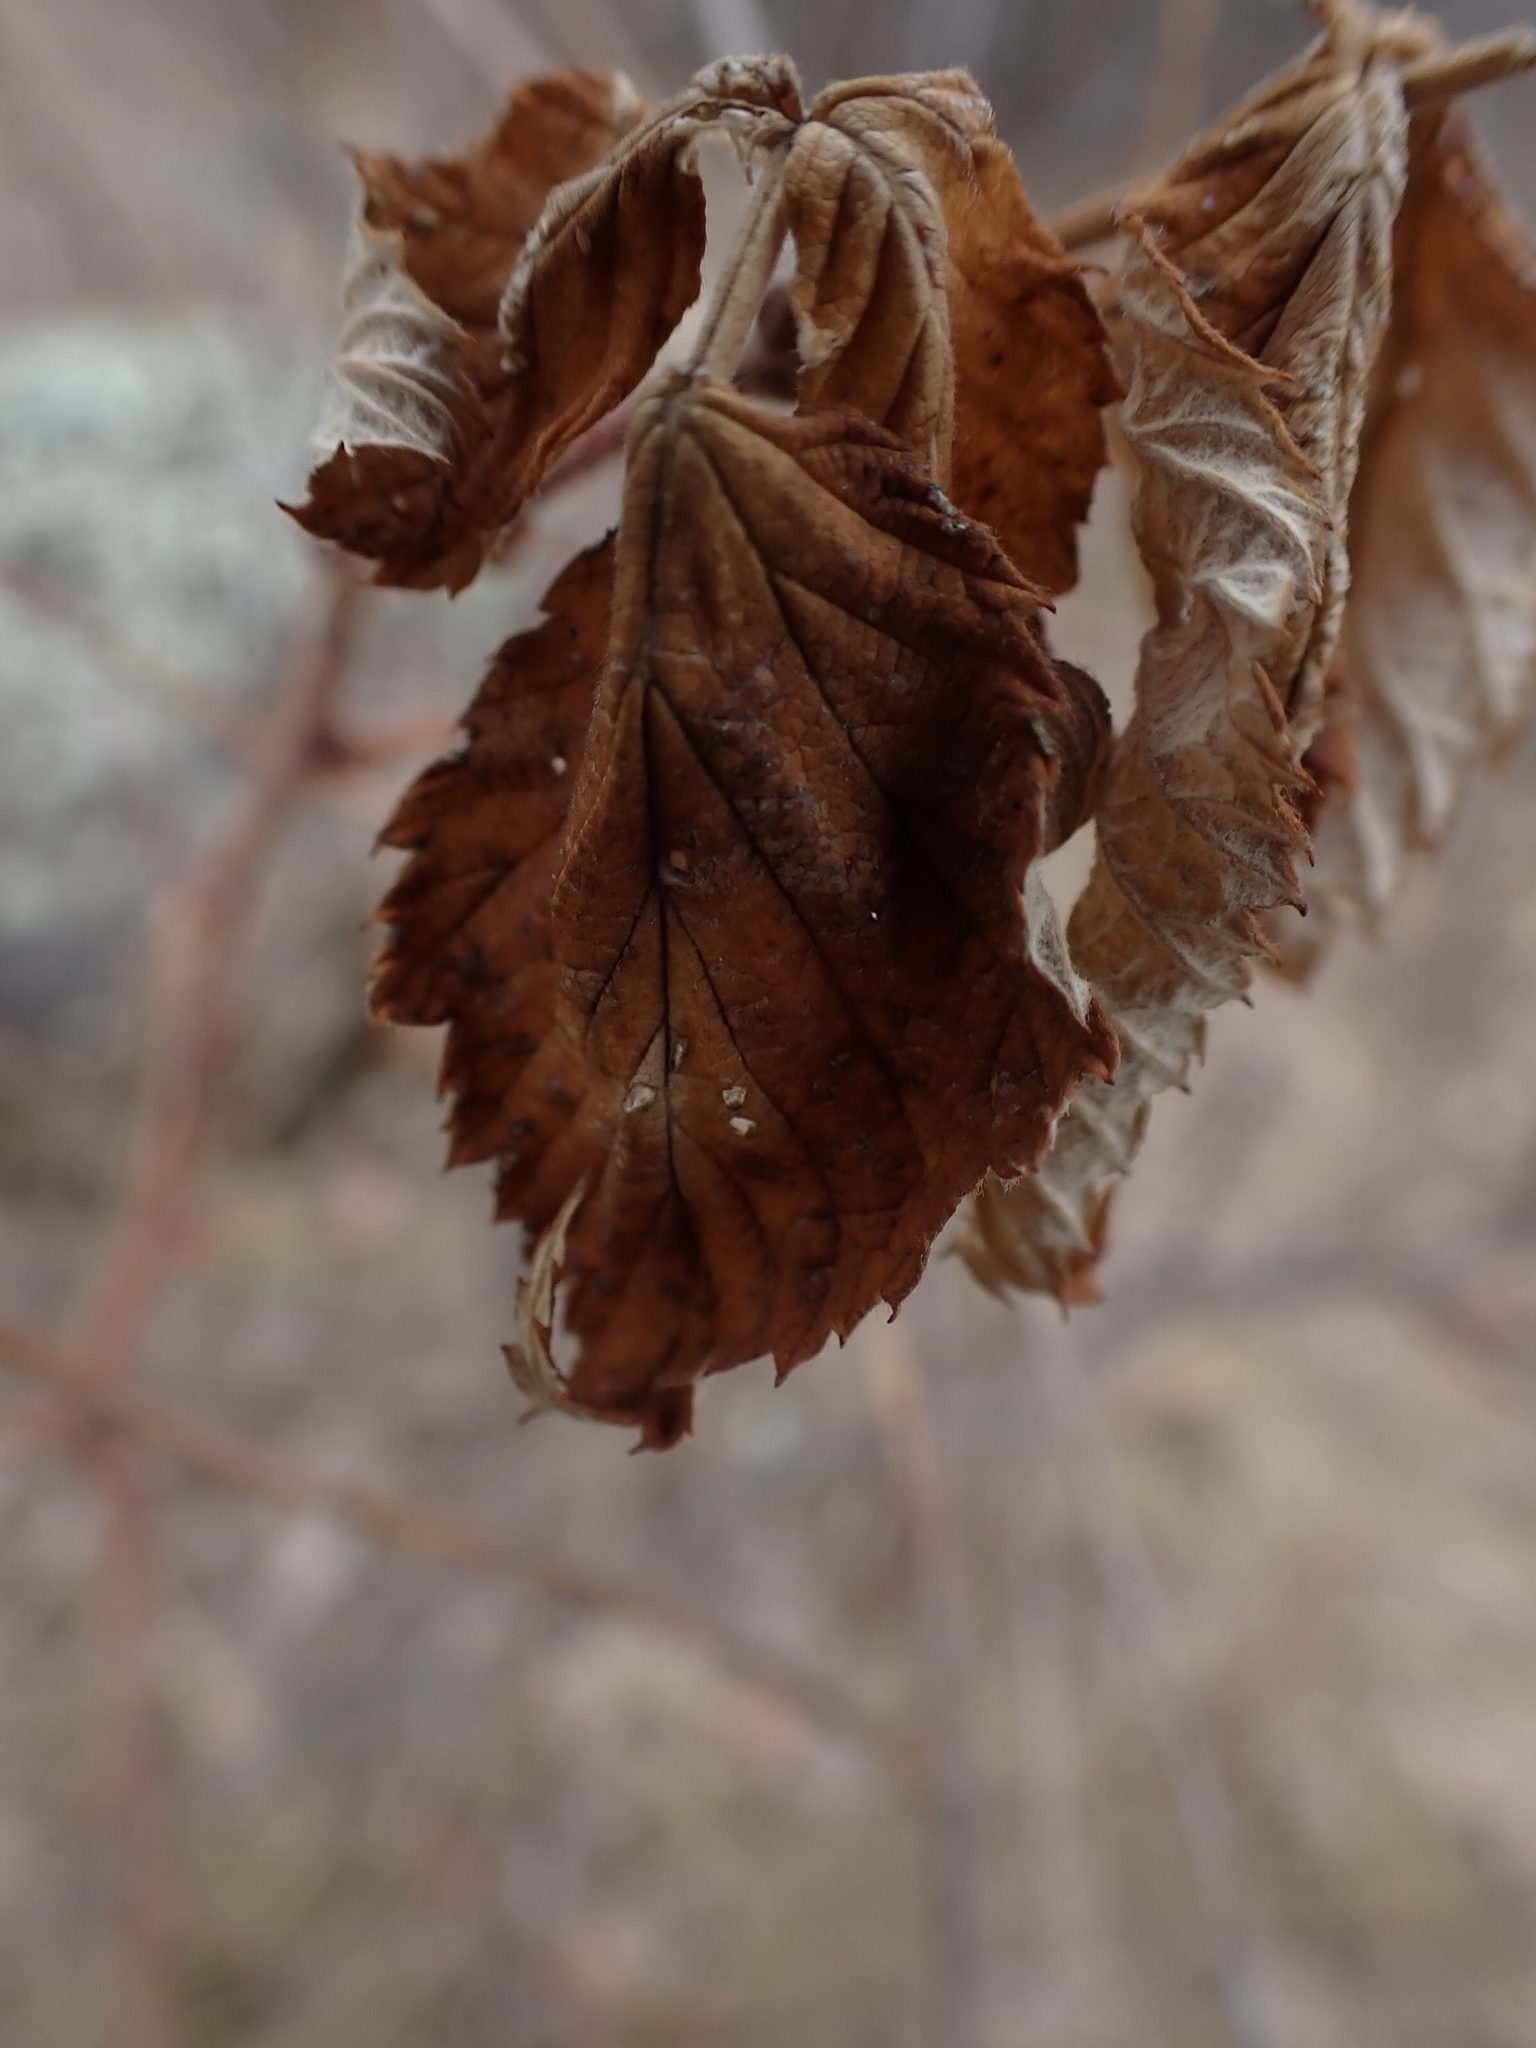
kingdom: Plantae
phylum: Tracheophyta
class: Magnoliopsida
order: Rosales
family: Rosaceae
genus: Rubus
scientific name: Rubus idaeus
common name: Raspberry
